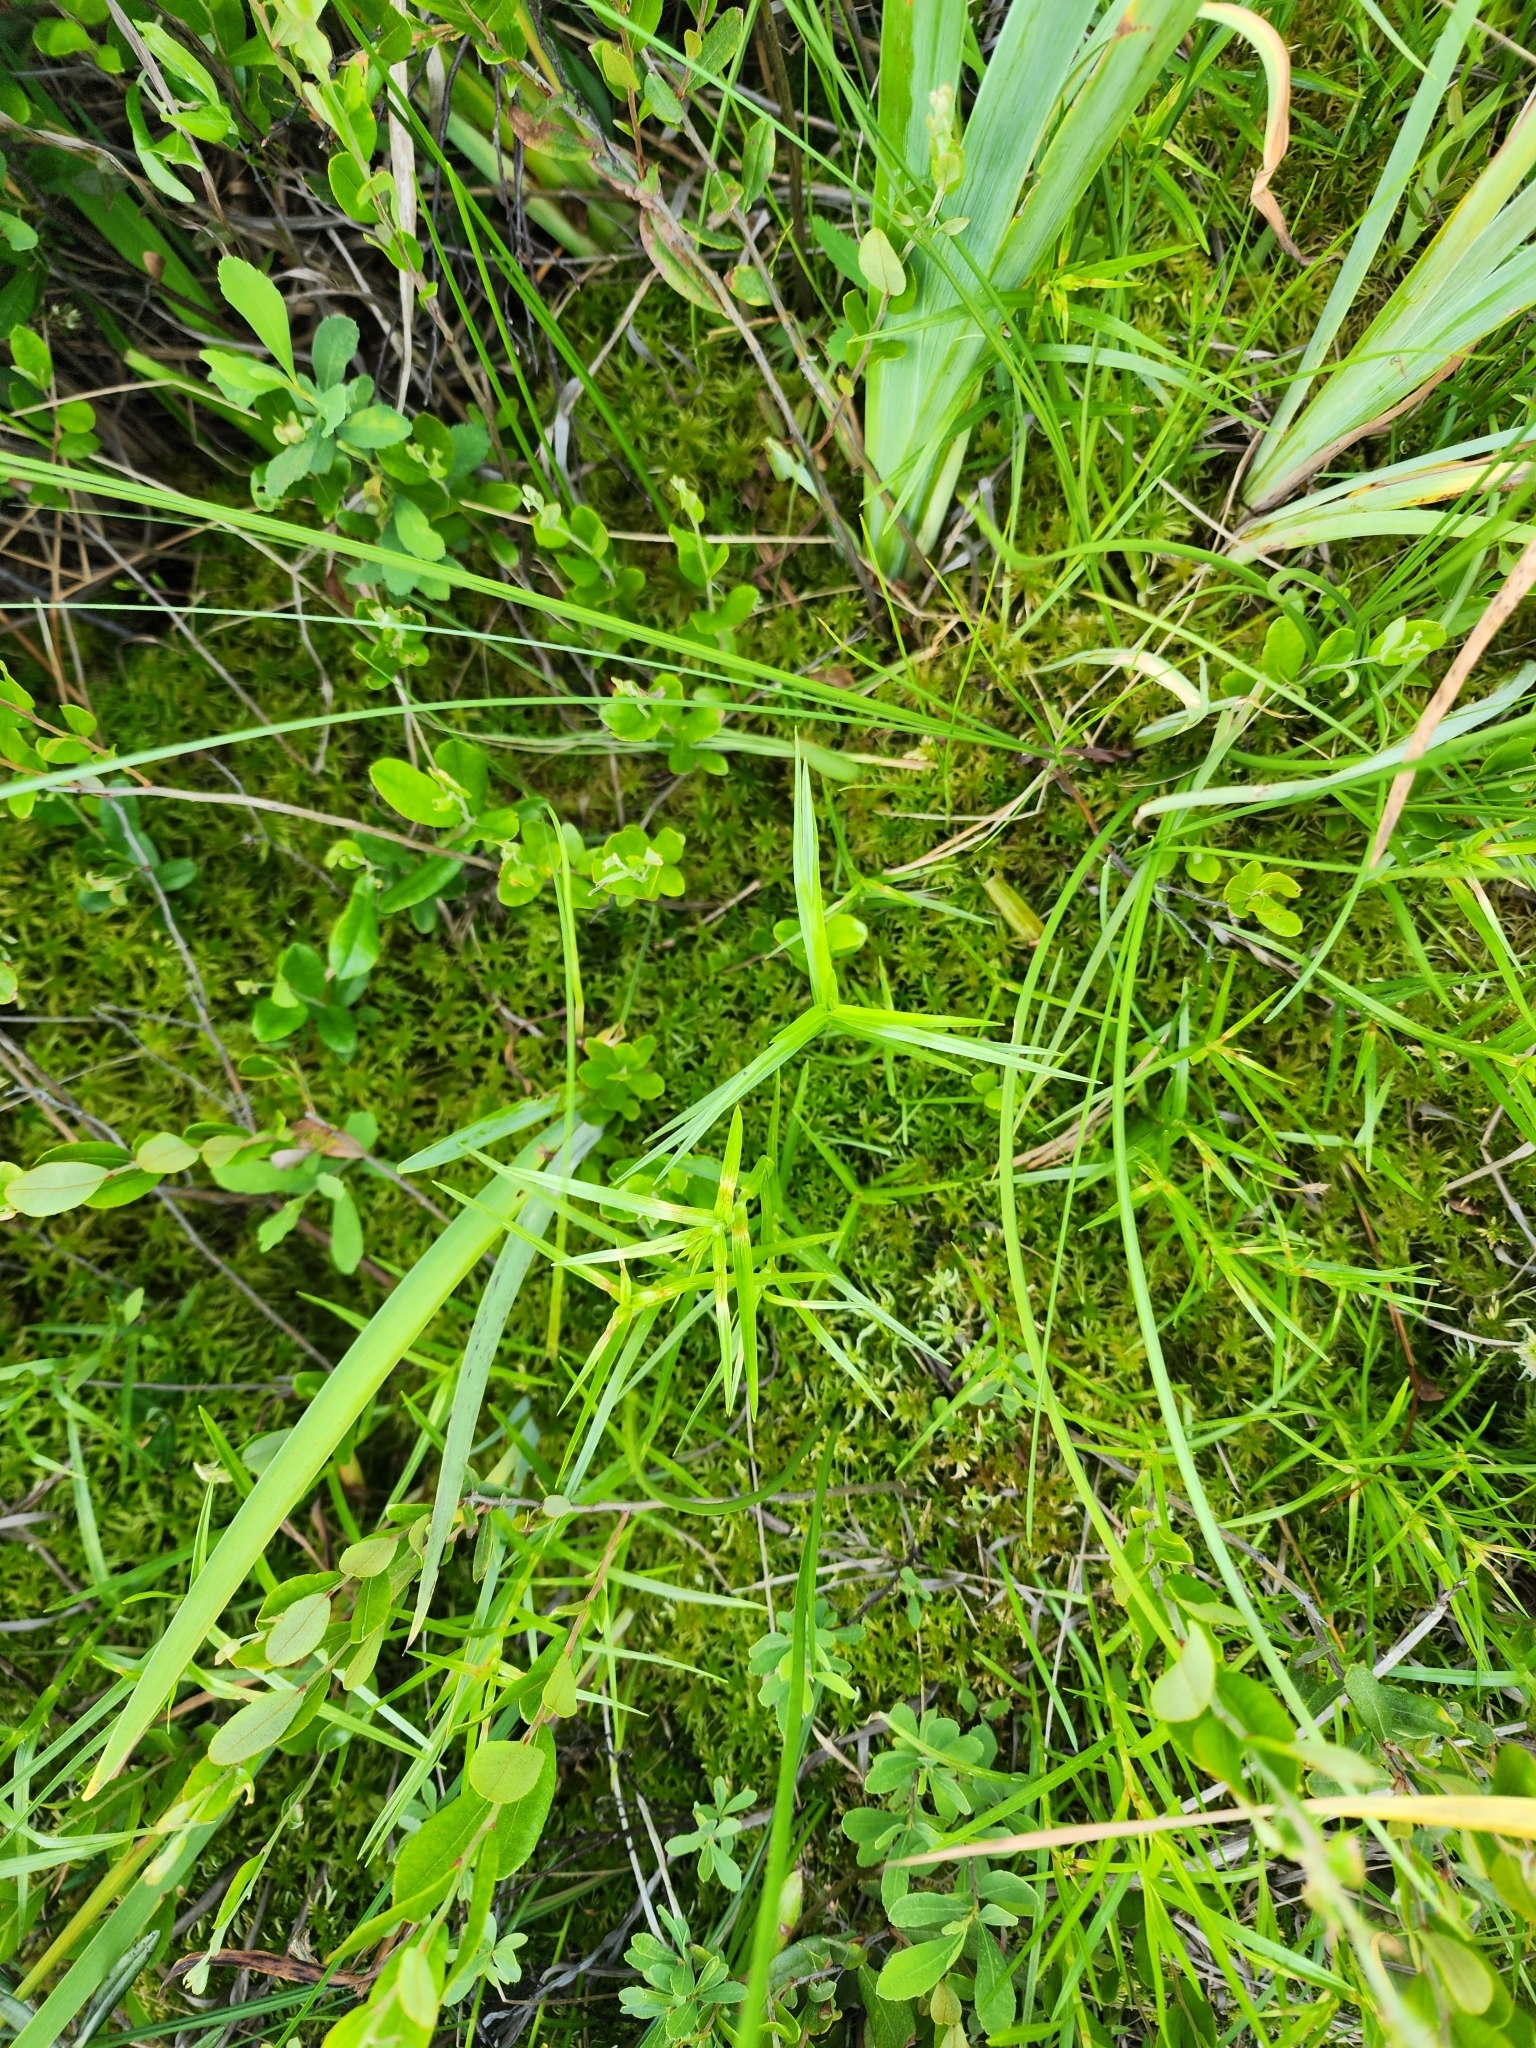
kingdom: Plantae
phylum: Tracheophyta
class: Liliopsida
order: Poales
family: Cyperaceae
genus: Dulichium
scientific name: Dulichium arundinaceum
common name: Three-way sedge
